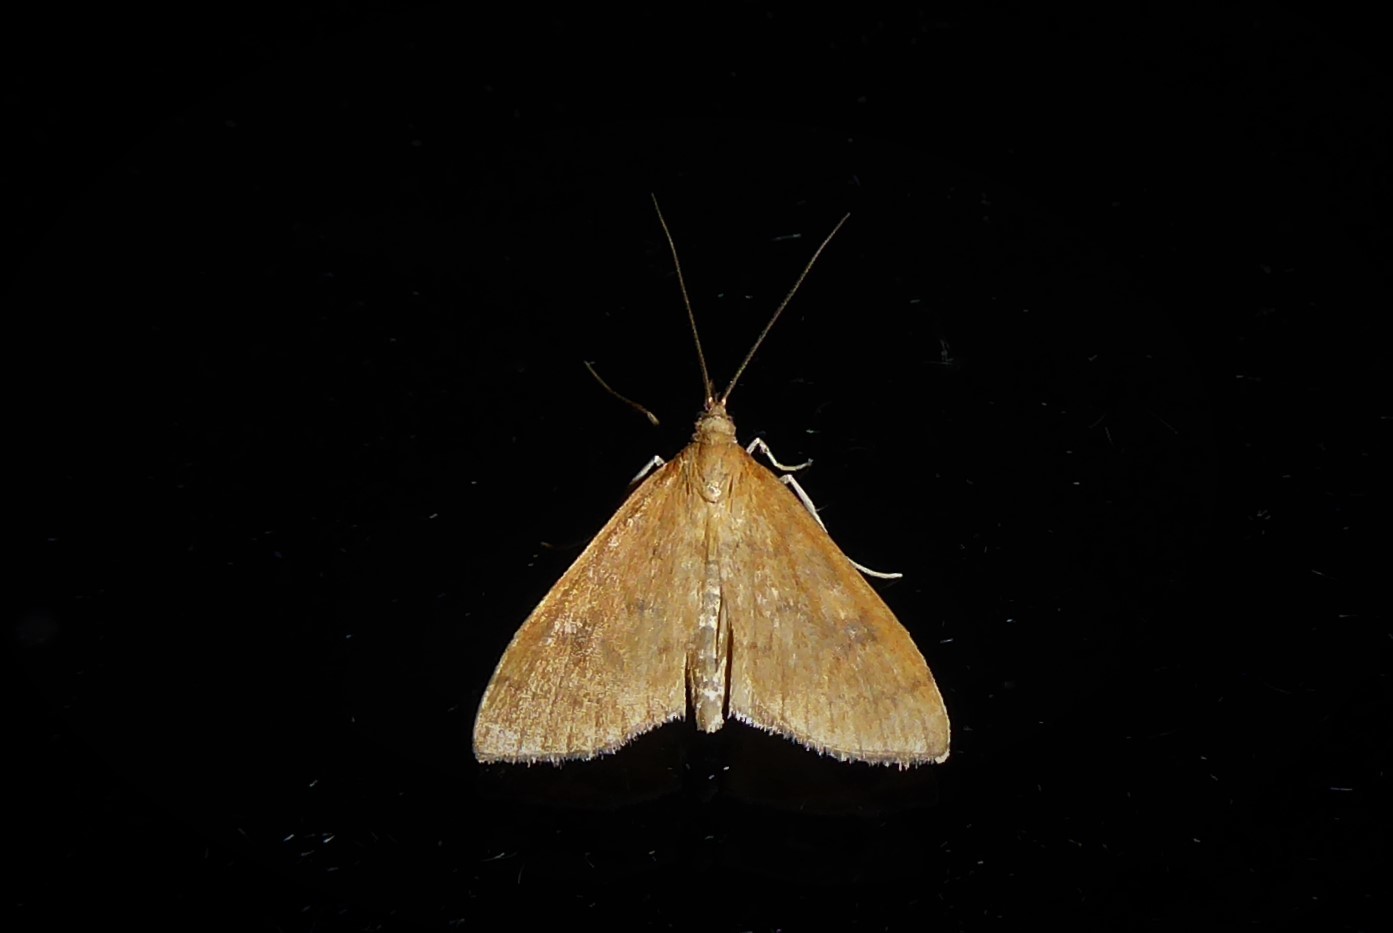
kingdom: Animalia
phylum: Arthropoda
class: Insecta
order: Lepidoptera
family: Crambidae
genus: Udea
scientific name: Udea Mnesictena flavidalis
